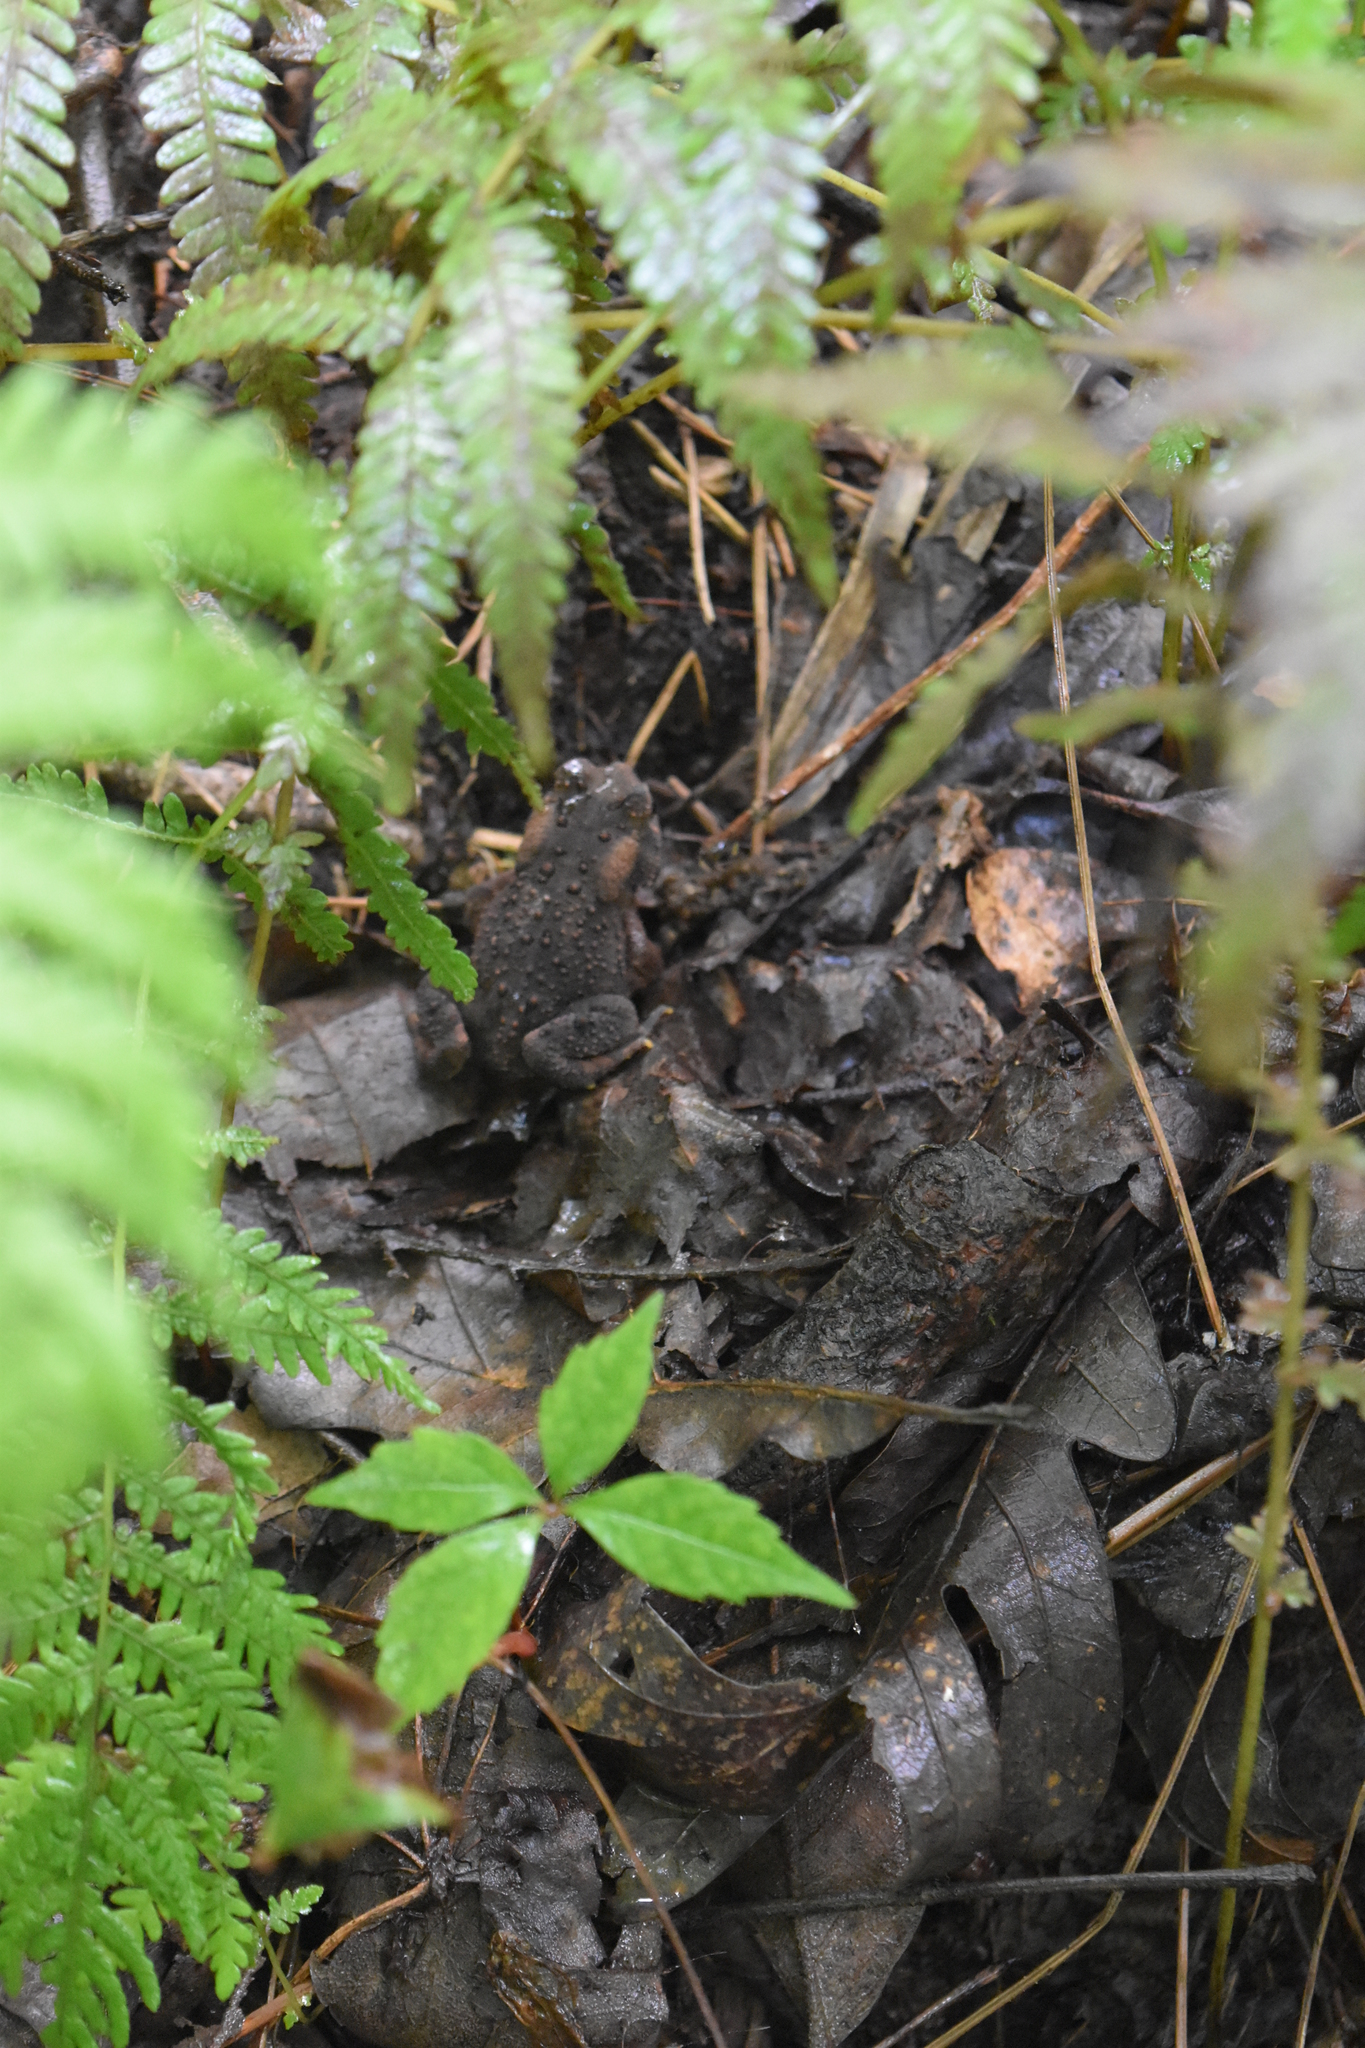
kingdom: Animalia
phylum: Chordata
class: Amphibia
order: Anura
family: Bufonidae
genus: Anaxyrus
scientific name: Anaxyrus americanus
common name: American toad
